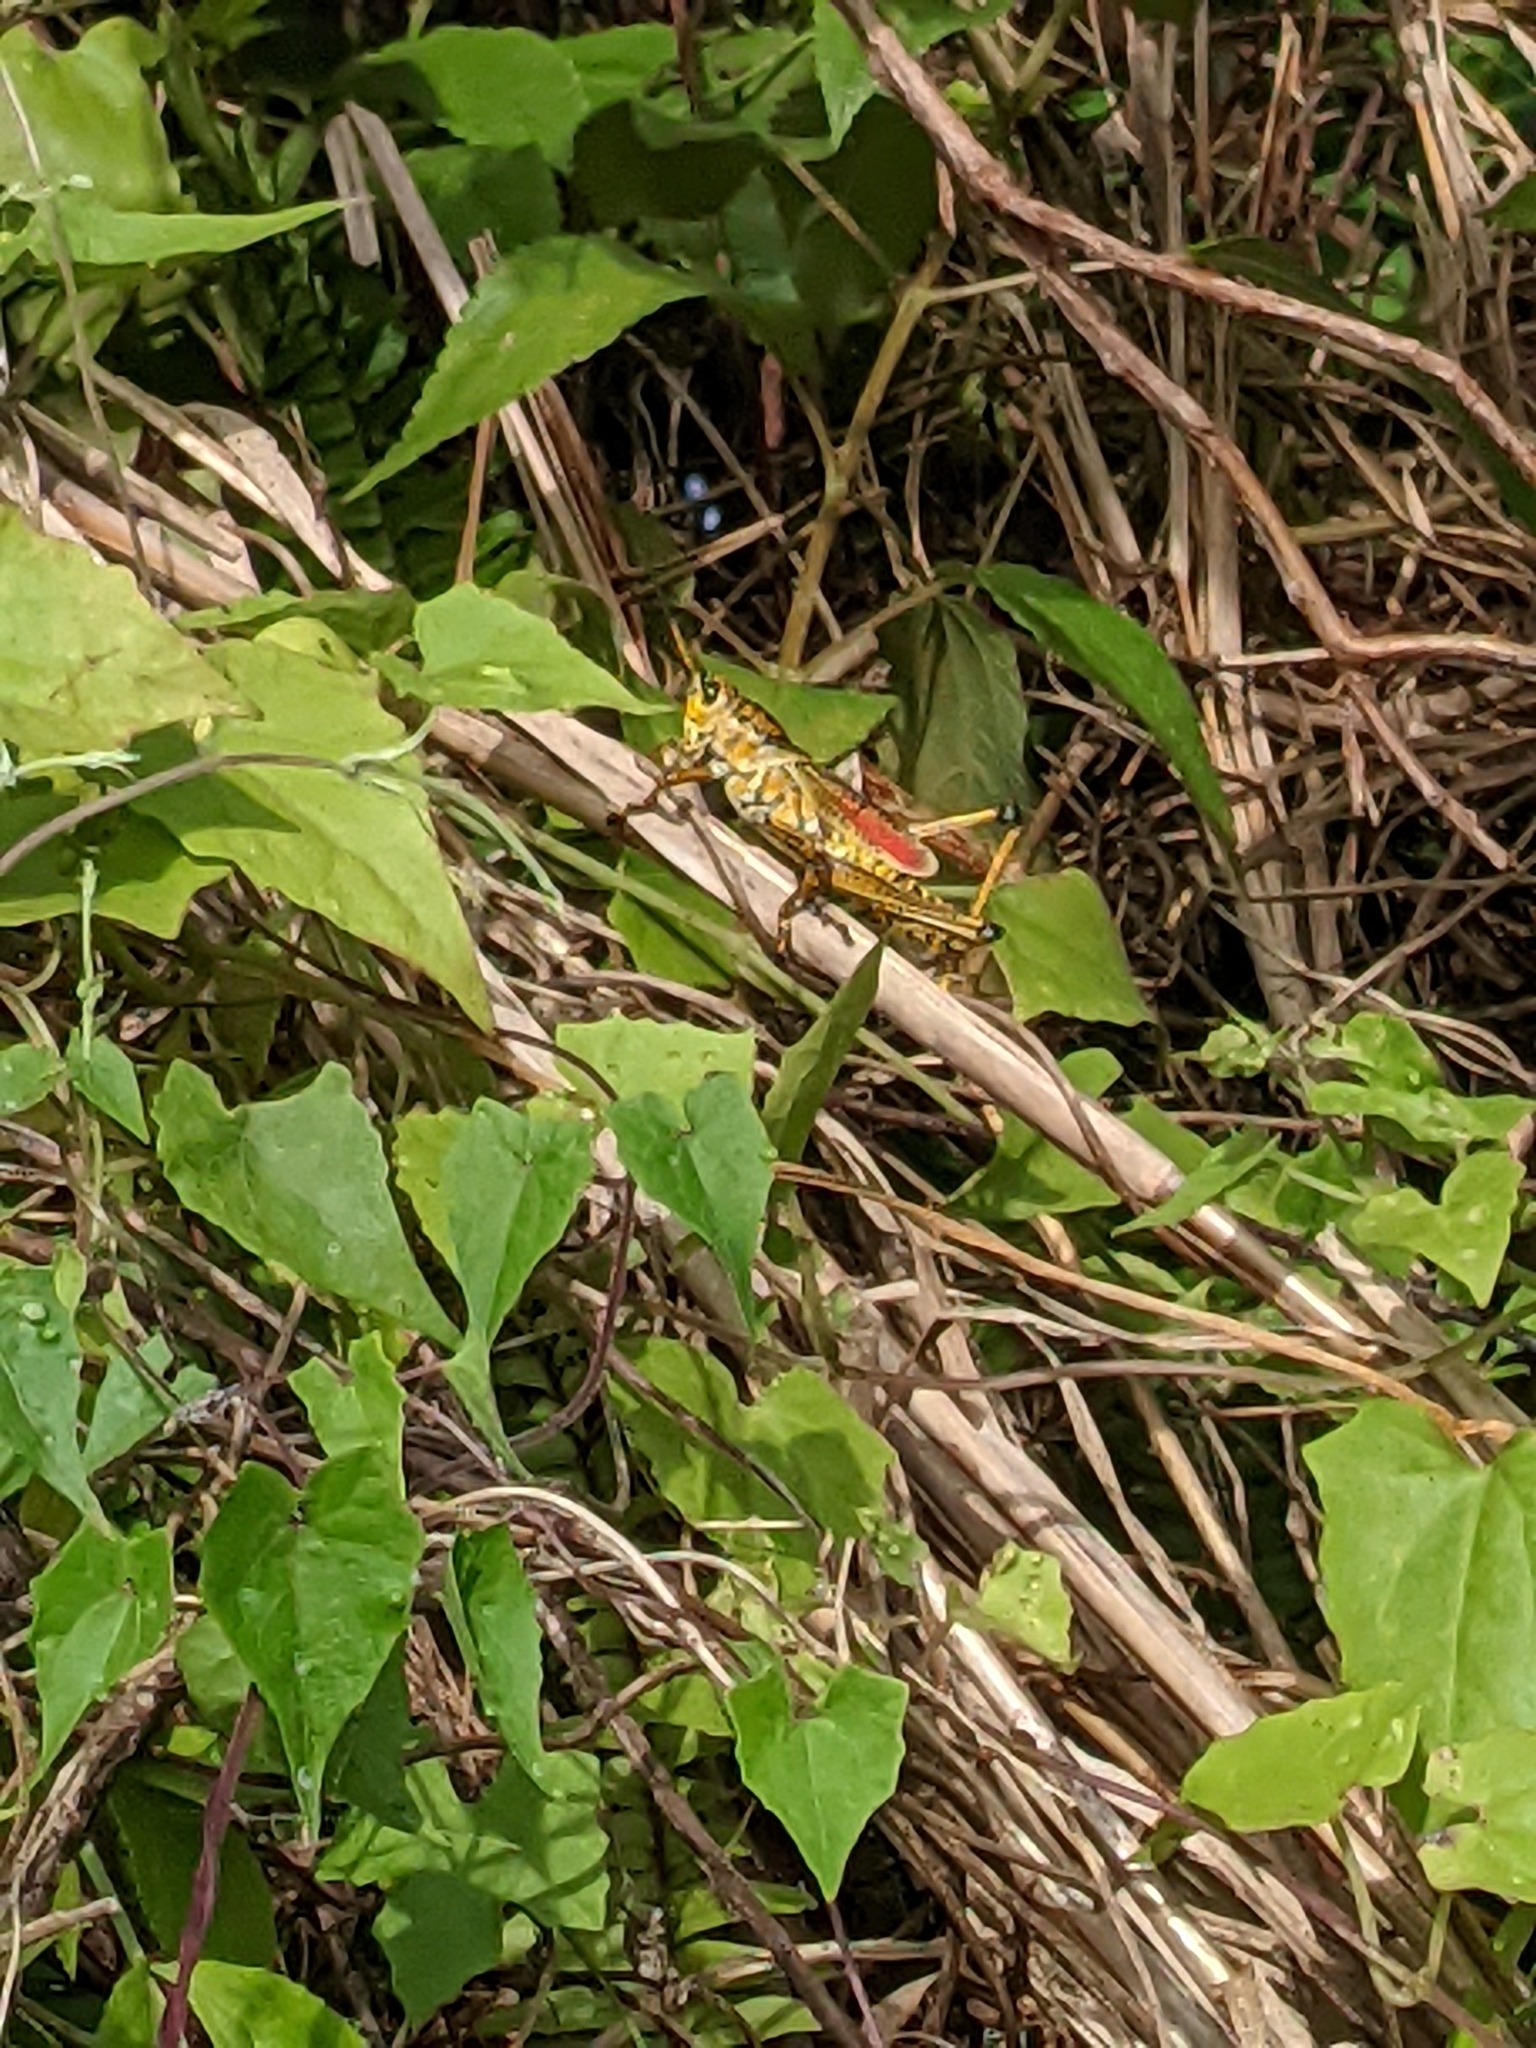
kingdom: Animalia
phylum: Arthropoda
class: Insecta
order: Orthoptera
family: Romaleidae
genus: Romalea
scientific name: Romalea microptera
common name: Eastern lubber grasshopper
